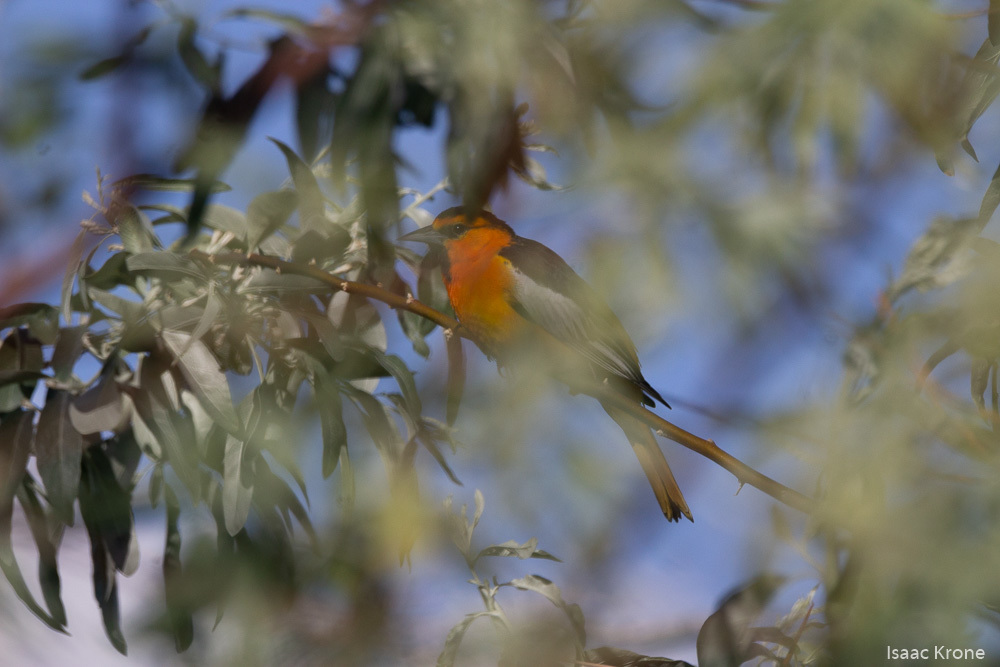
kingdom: Animalia
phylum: Chordata
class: Aves
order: Passeriformes
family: Icteridae
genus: Icterus
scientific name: Icterus bullockii
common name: Bullock's oriole
